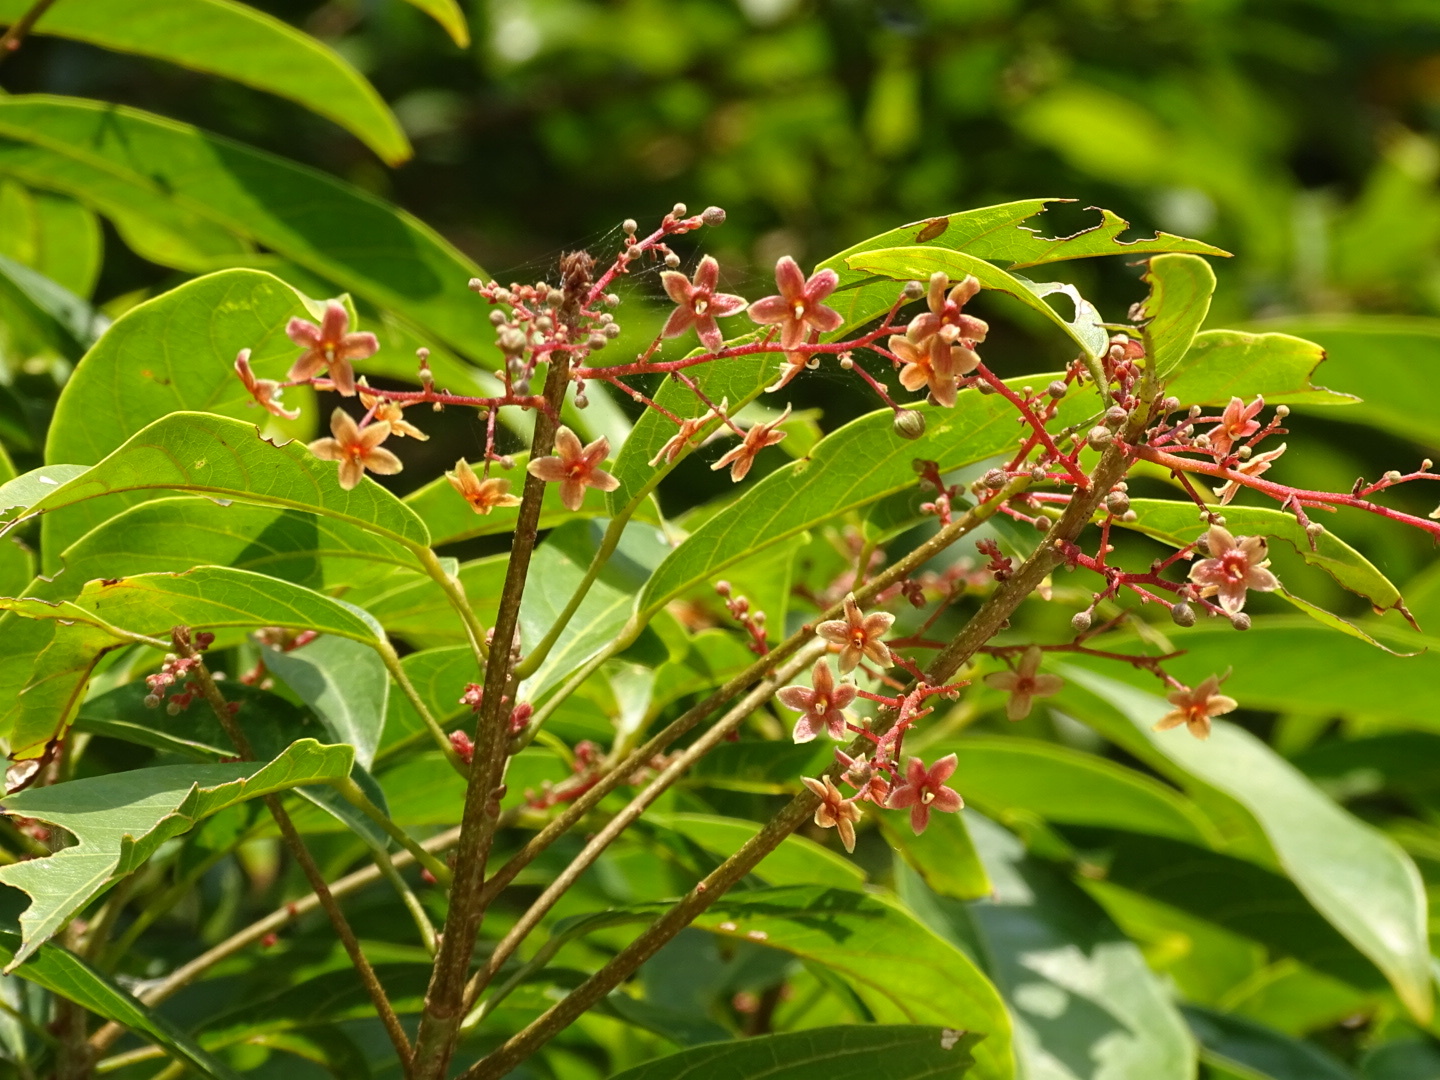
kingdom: Plantae
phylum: Tracheophyta
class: Magnoliopsida
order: Malvales
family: Malvaceae
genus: Sterculia
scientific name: Sterculia lanceolata
